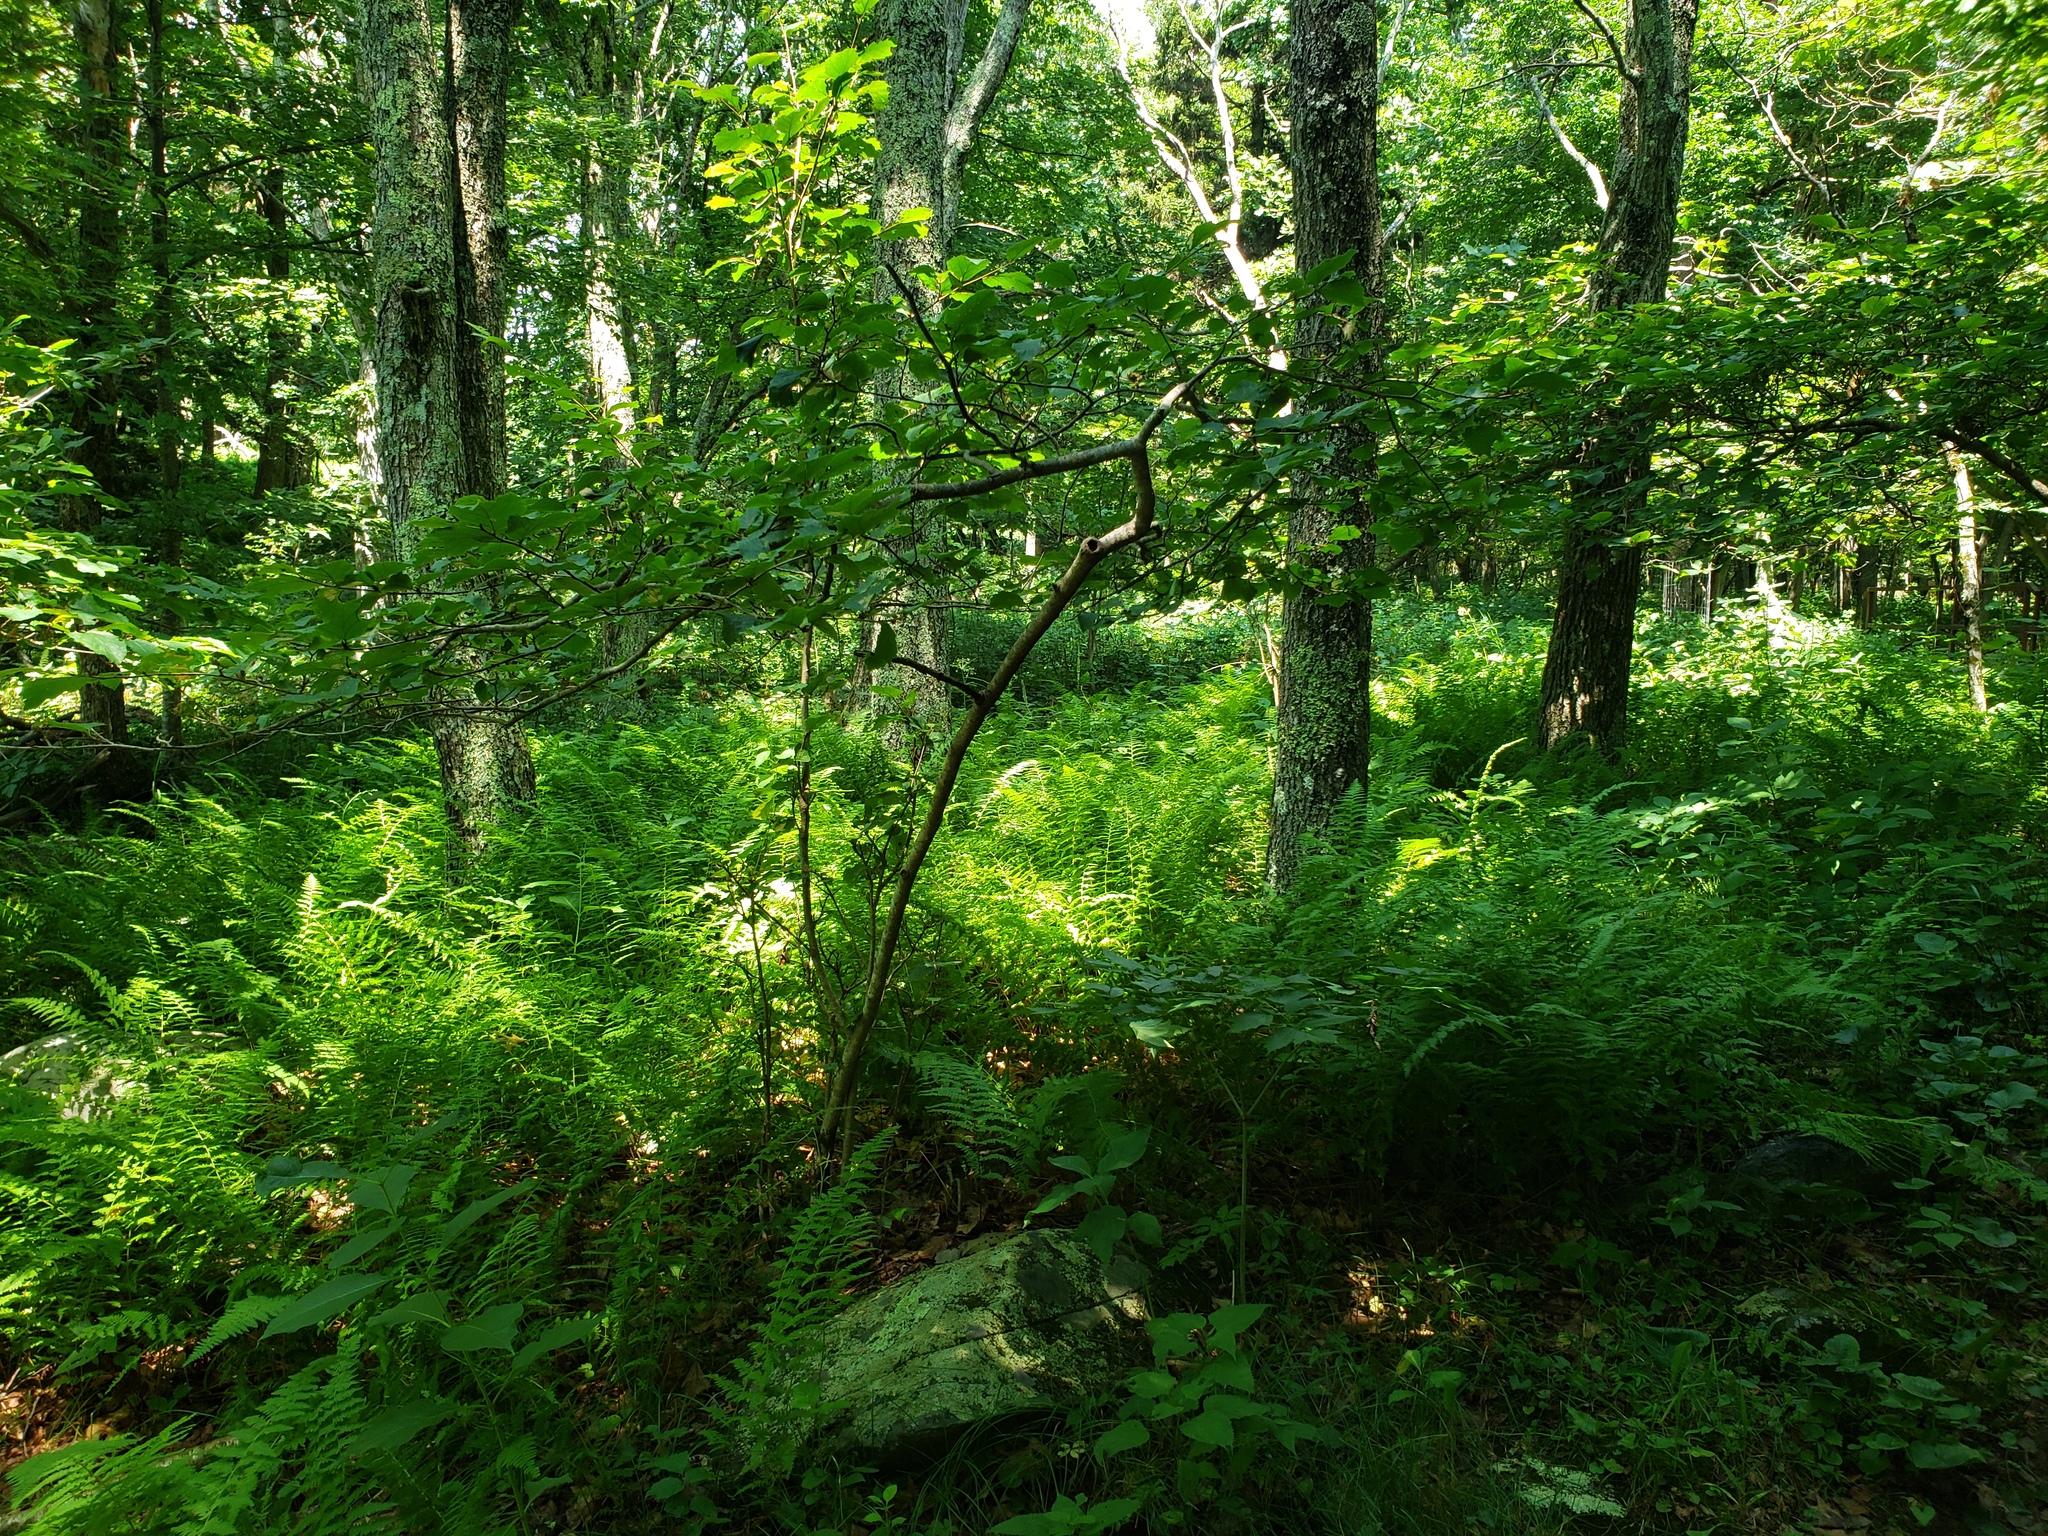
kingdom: Plantae
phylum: Tracheophyta
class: Magnoliopsida
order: Saxifragales
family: Hamamelidaceae
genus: Hamamelis
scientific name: Hamamelis virginiana
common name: Witch-hazel
